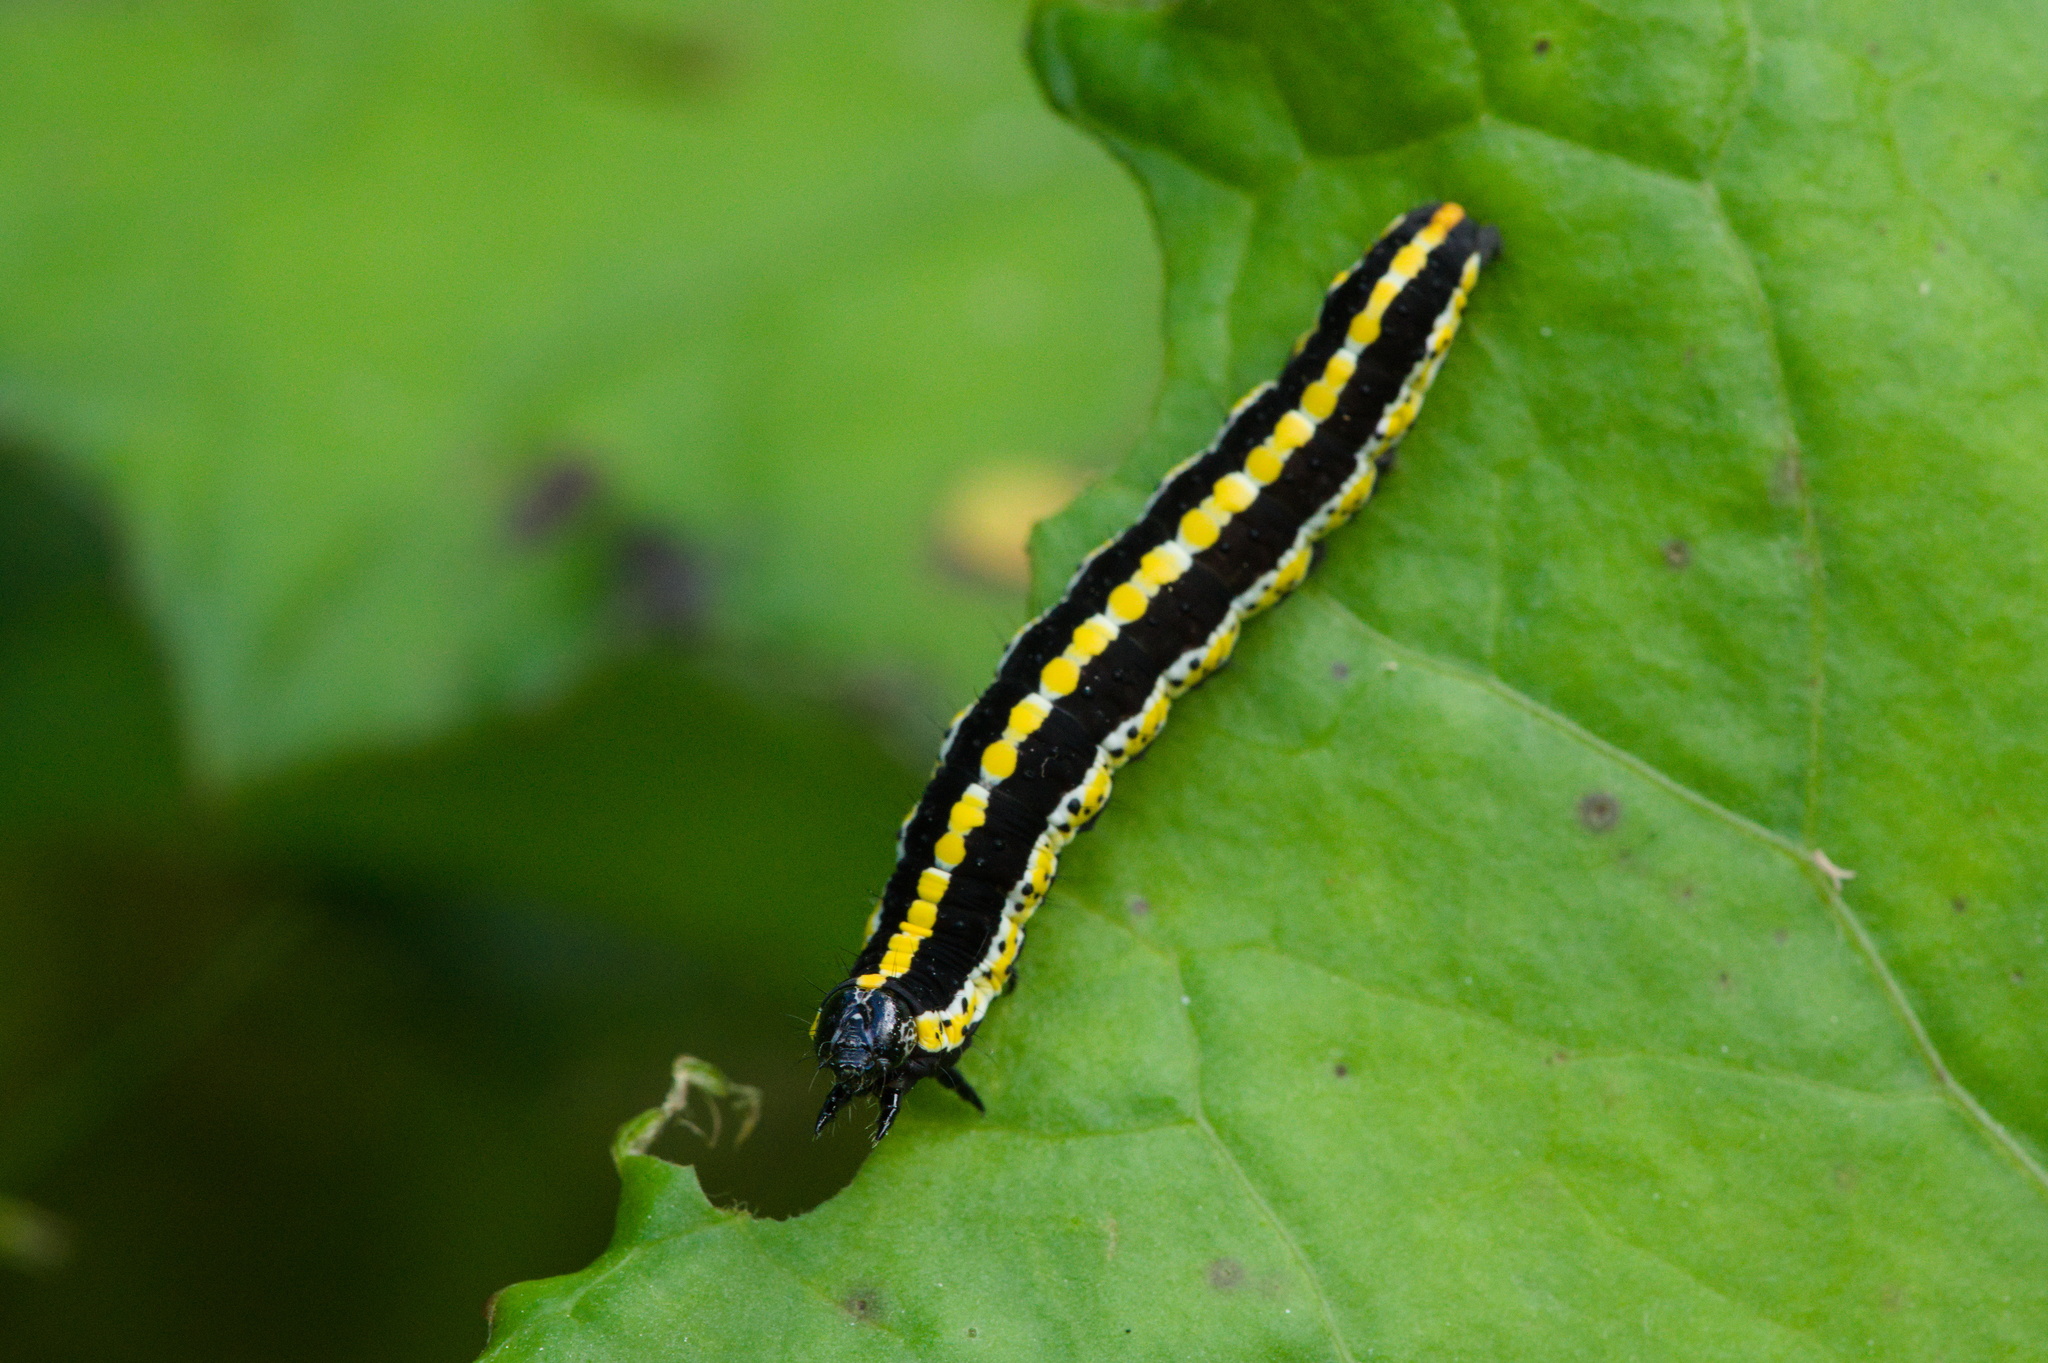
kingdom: Animalia
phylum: Arthropoda
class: Insecta
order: Lepidoptera
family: Noctuidae
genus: Cucullia
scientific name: Cucullia lucifuga
